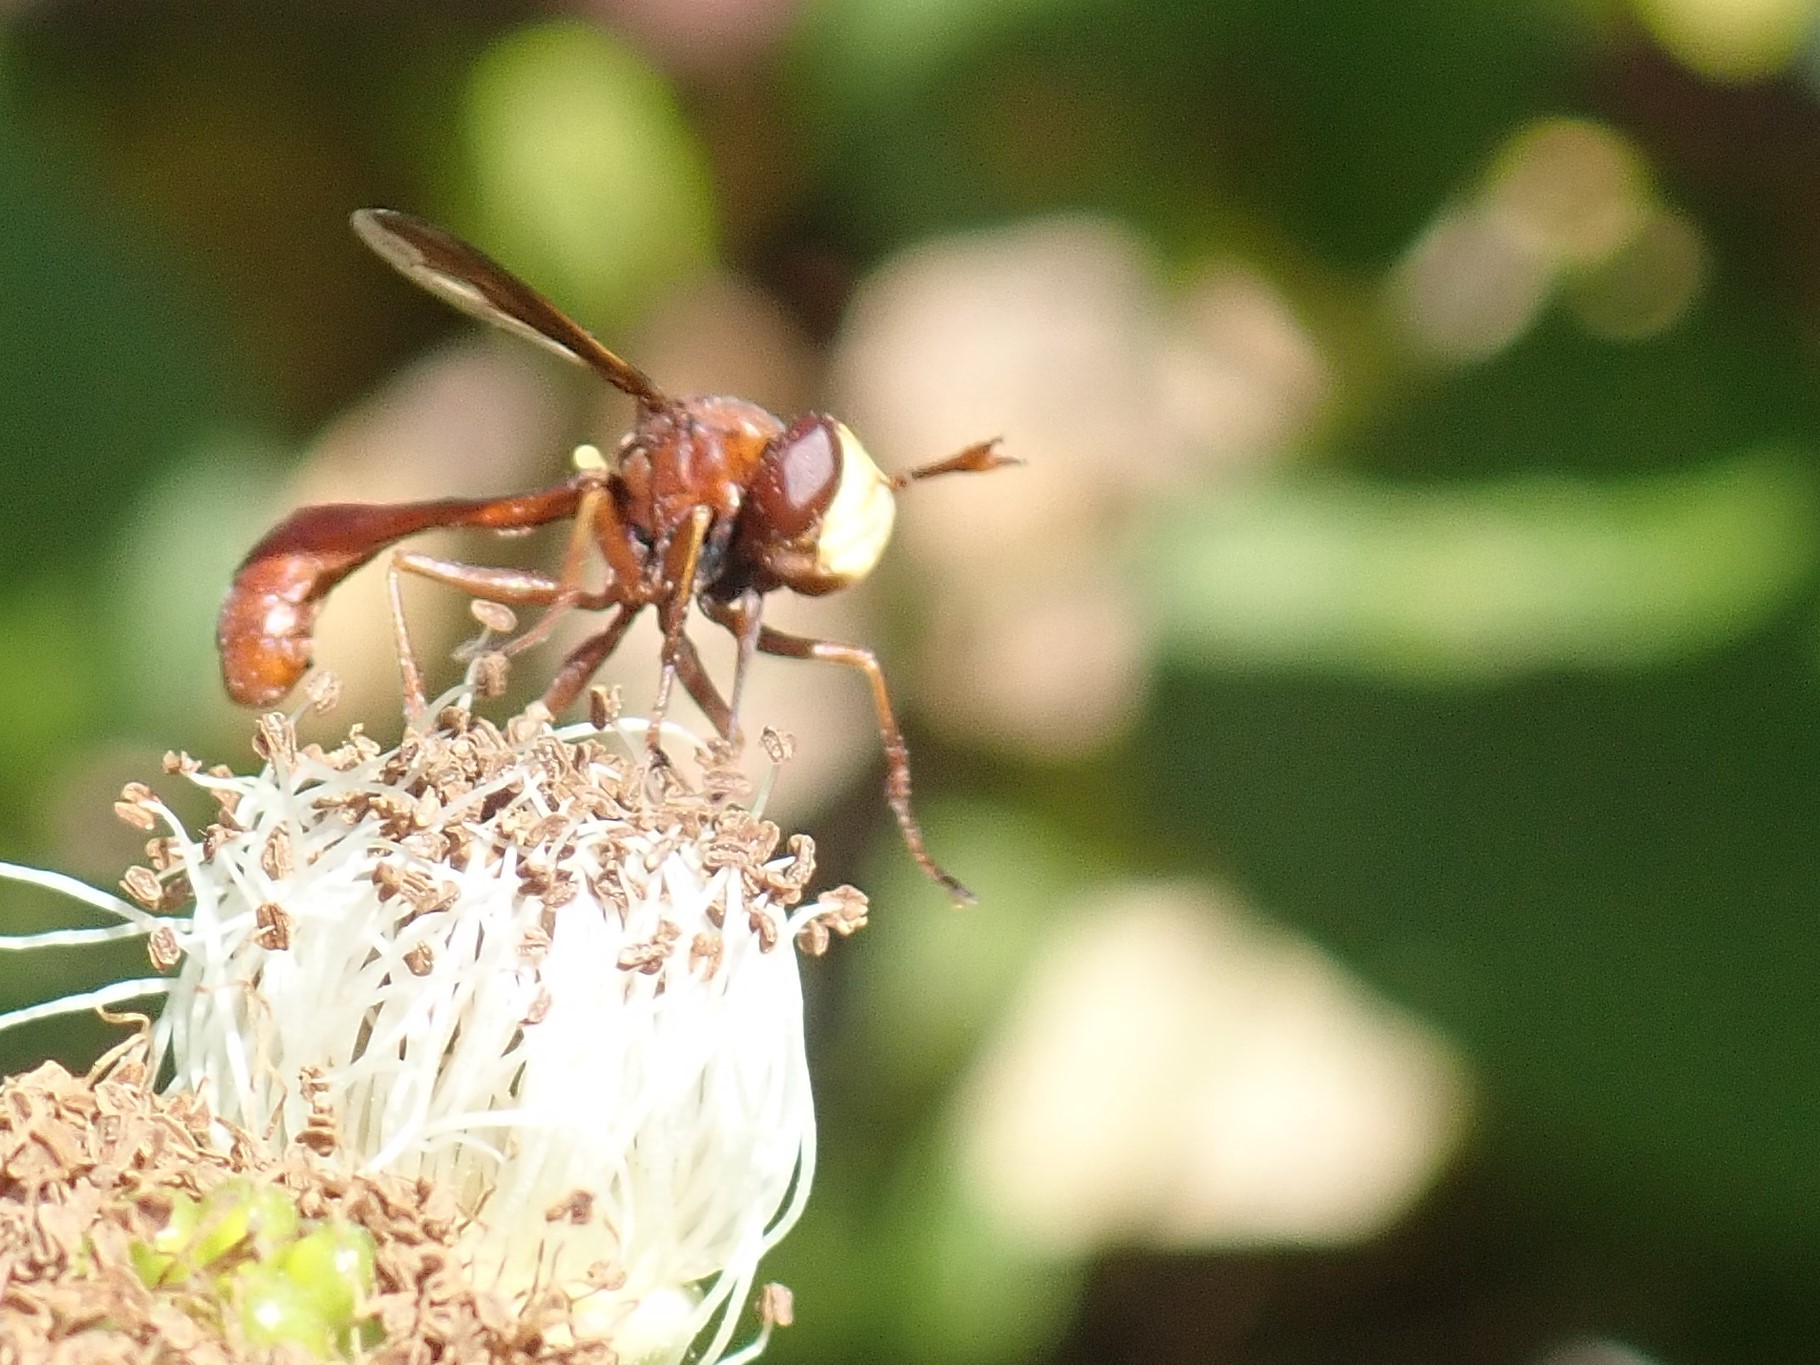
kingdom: Animalia
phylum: Arthropoda
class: Insecta
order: Diptera
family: Conopidae
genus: Physocephala
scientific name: Physocephala burgessi
